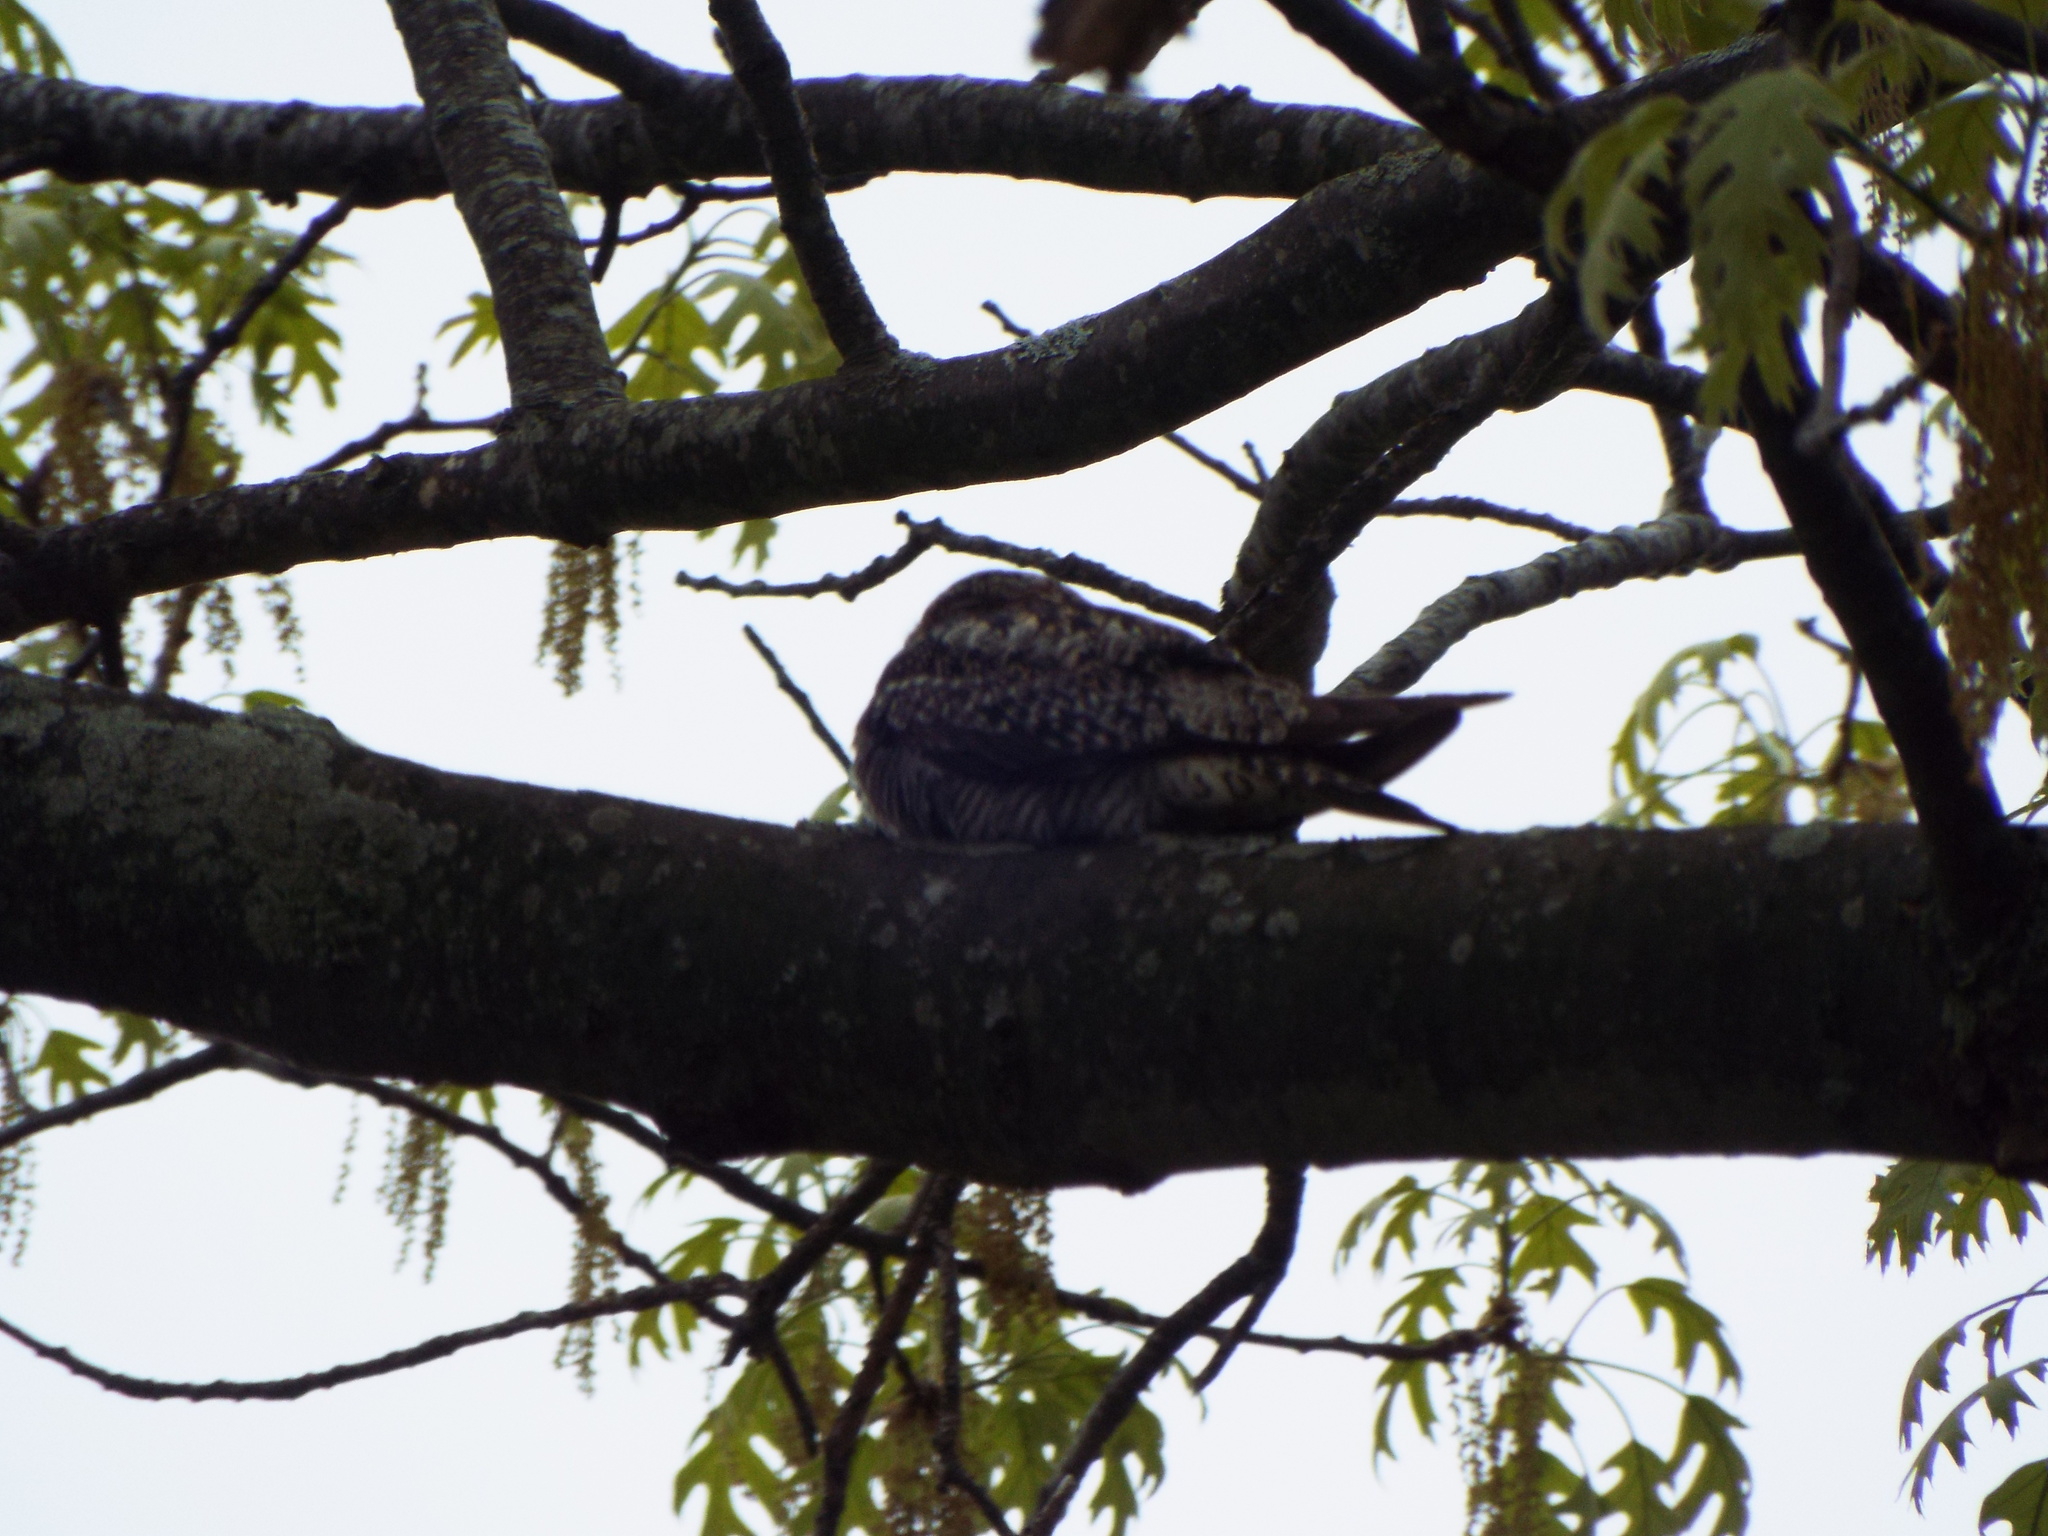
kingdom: Animalia
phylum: Chordata
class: Aves
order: Caprimulgiformes
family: Caprimulgidae
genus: Chordeiles
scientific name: Chordeiles minor
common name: Common nighthawk
